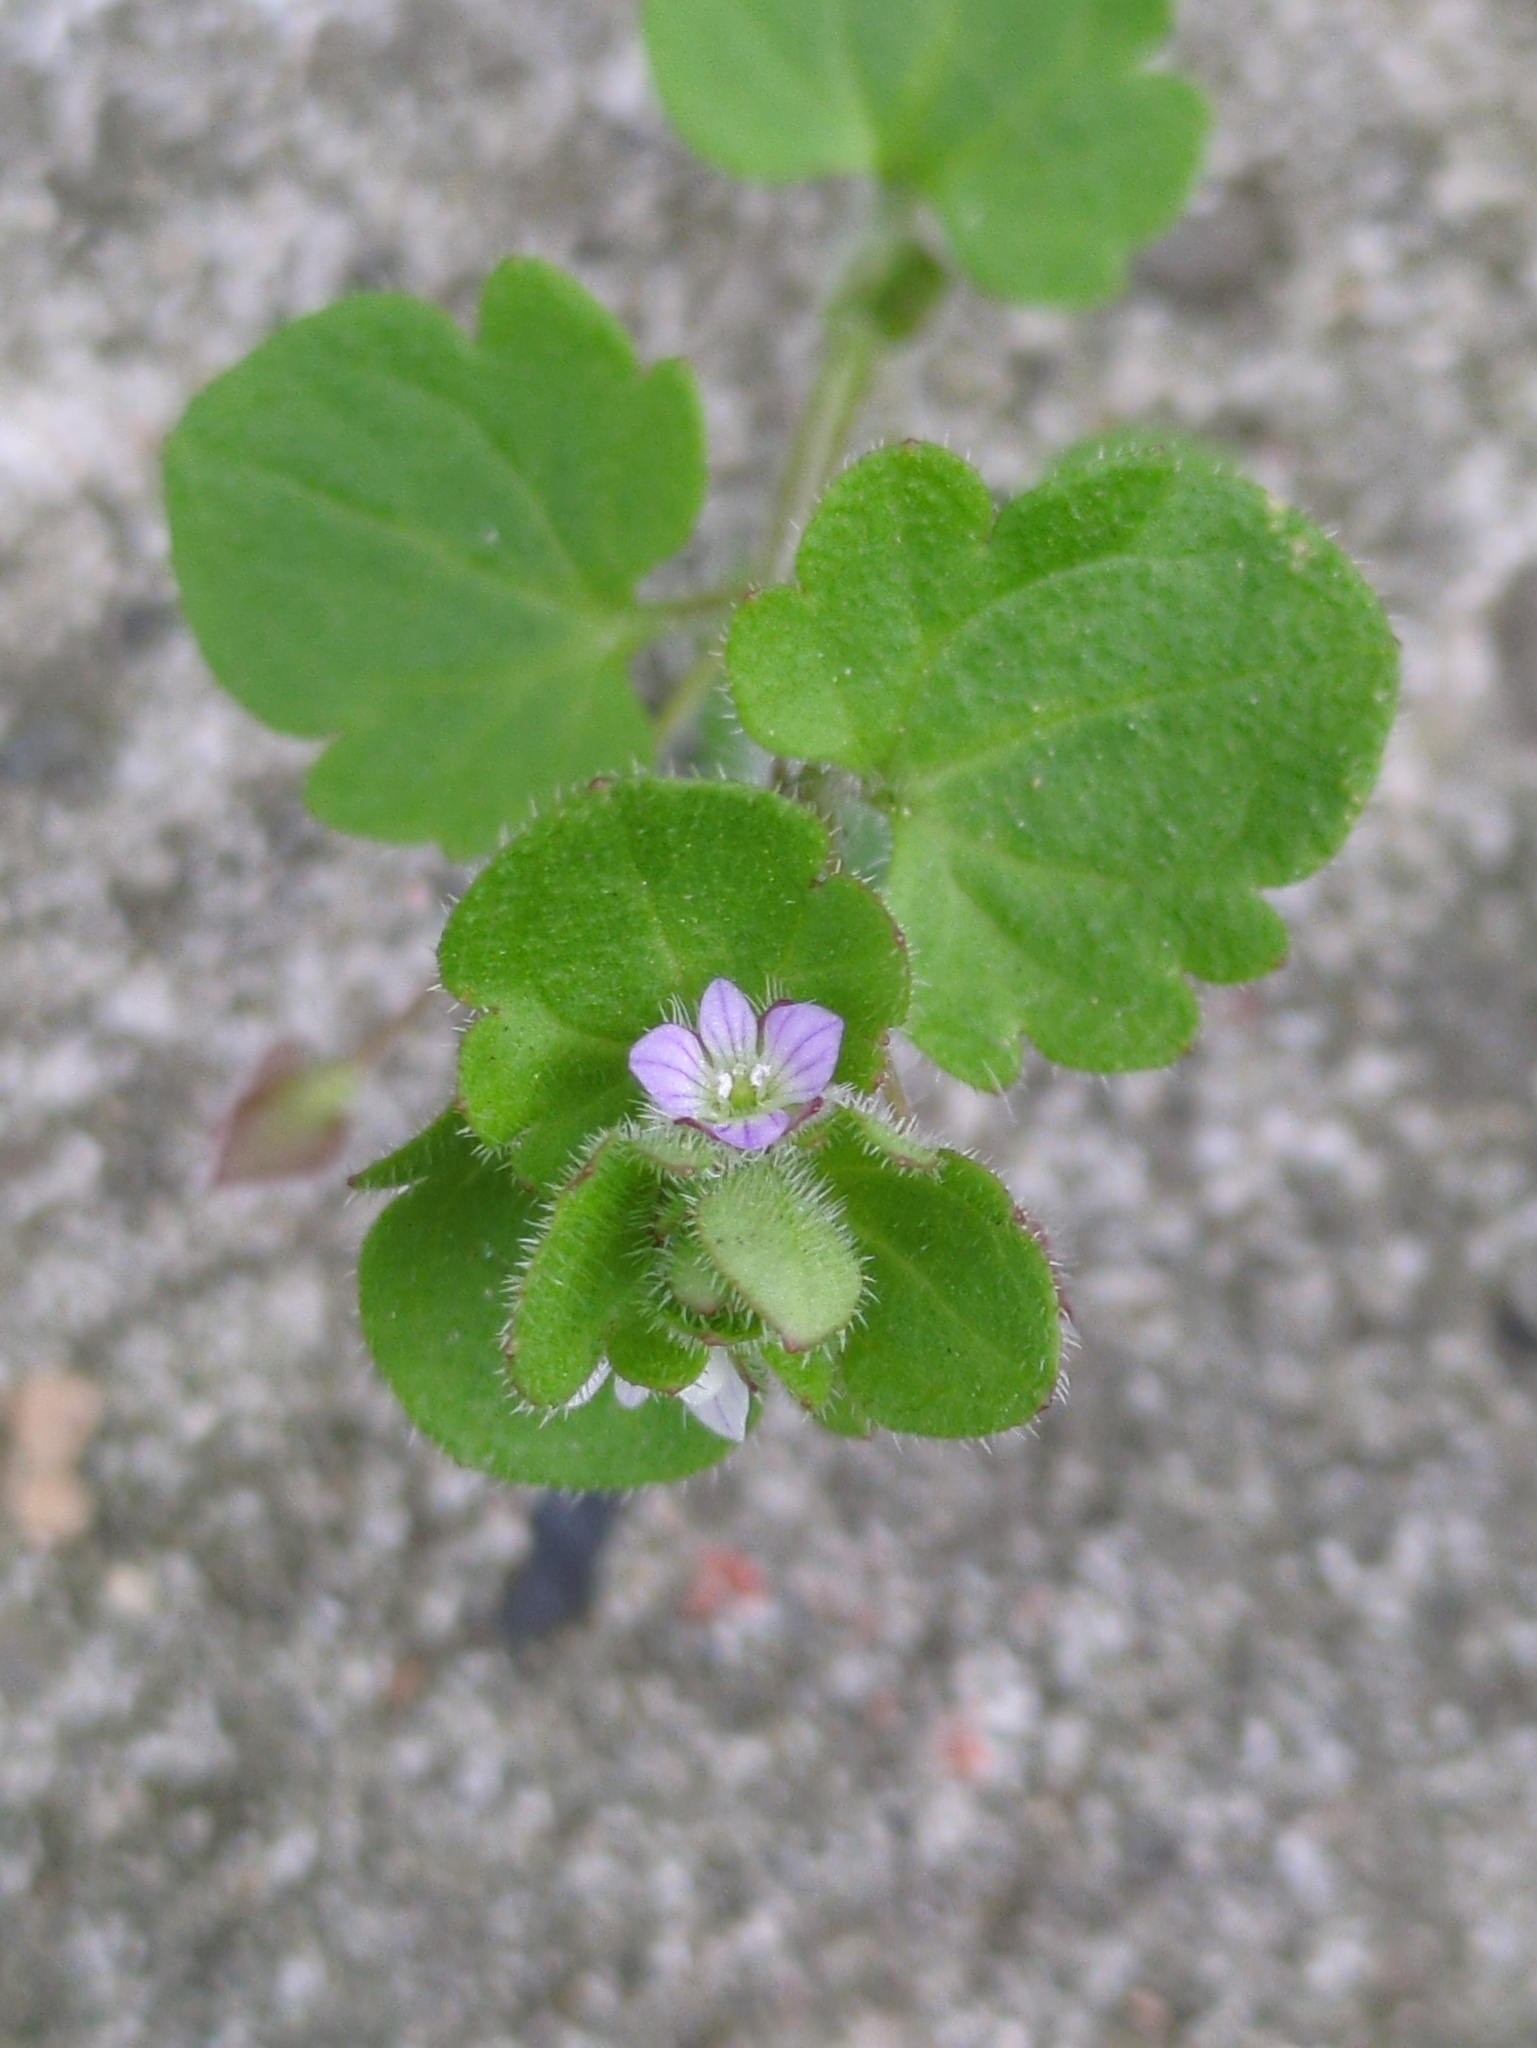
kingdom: Plantae
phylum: Tracheophyta
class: Magnoliopsida
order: Lamiales
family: Plantaginaceae
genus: Veronica
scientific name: Veronica sublobata
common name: False ivy-leaved speedwell
